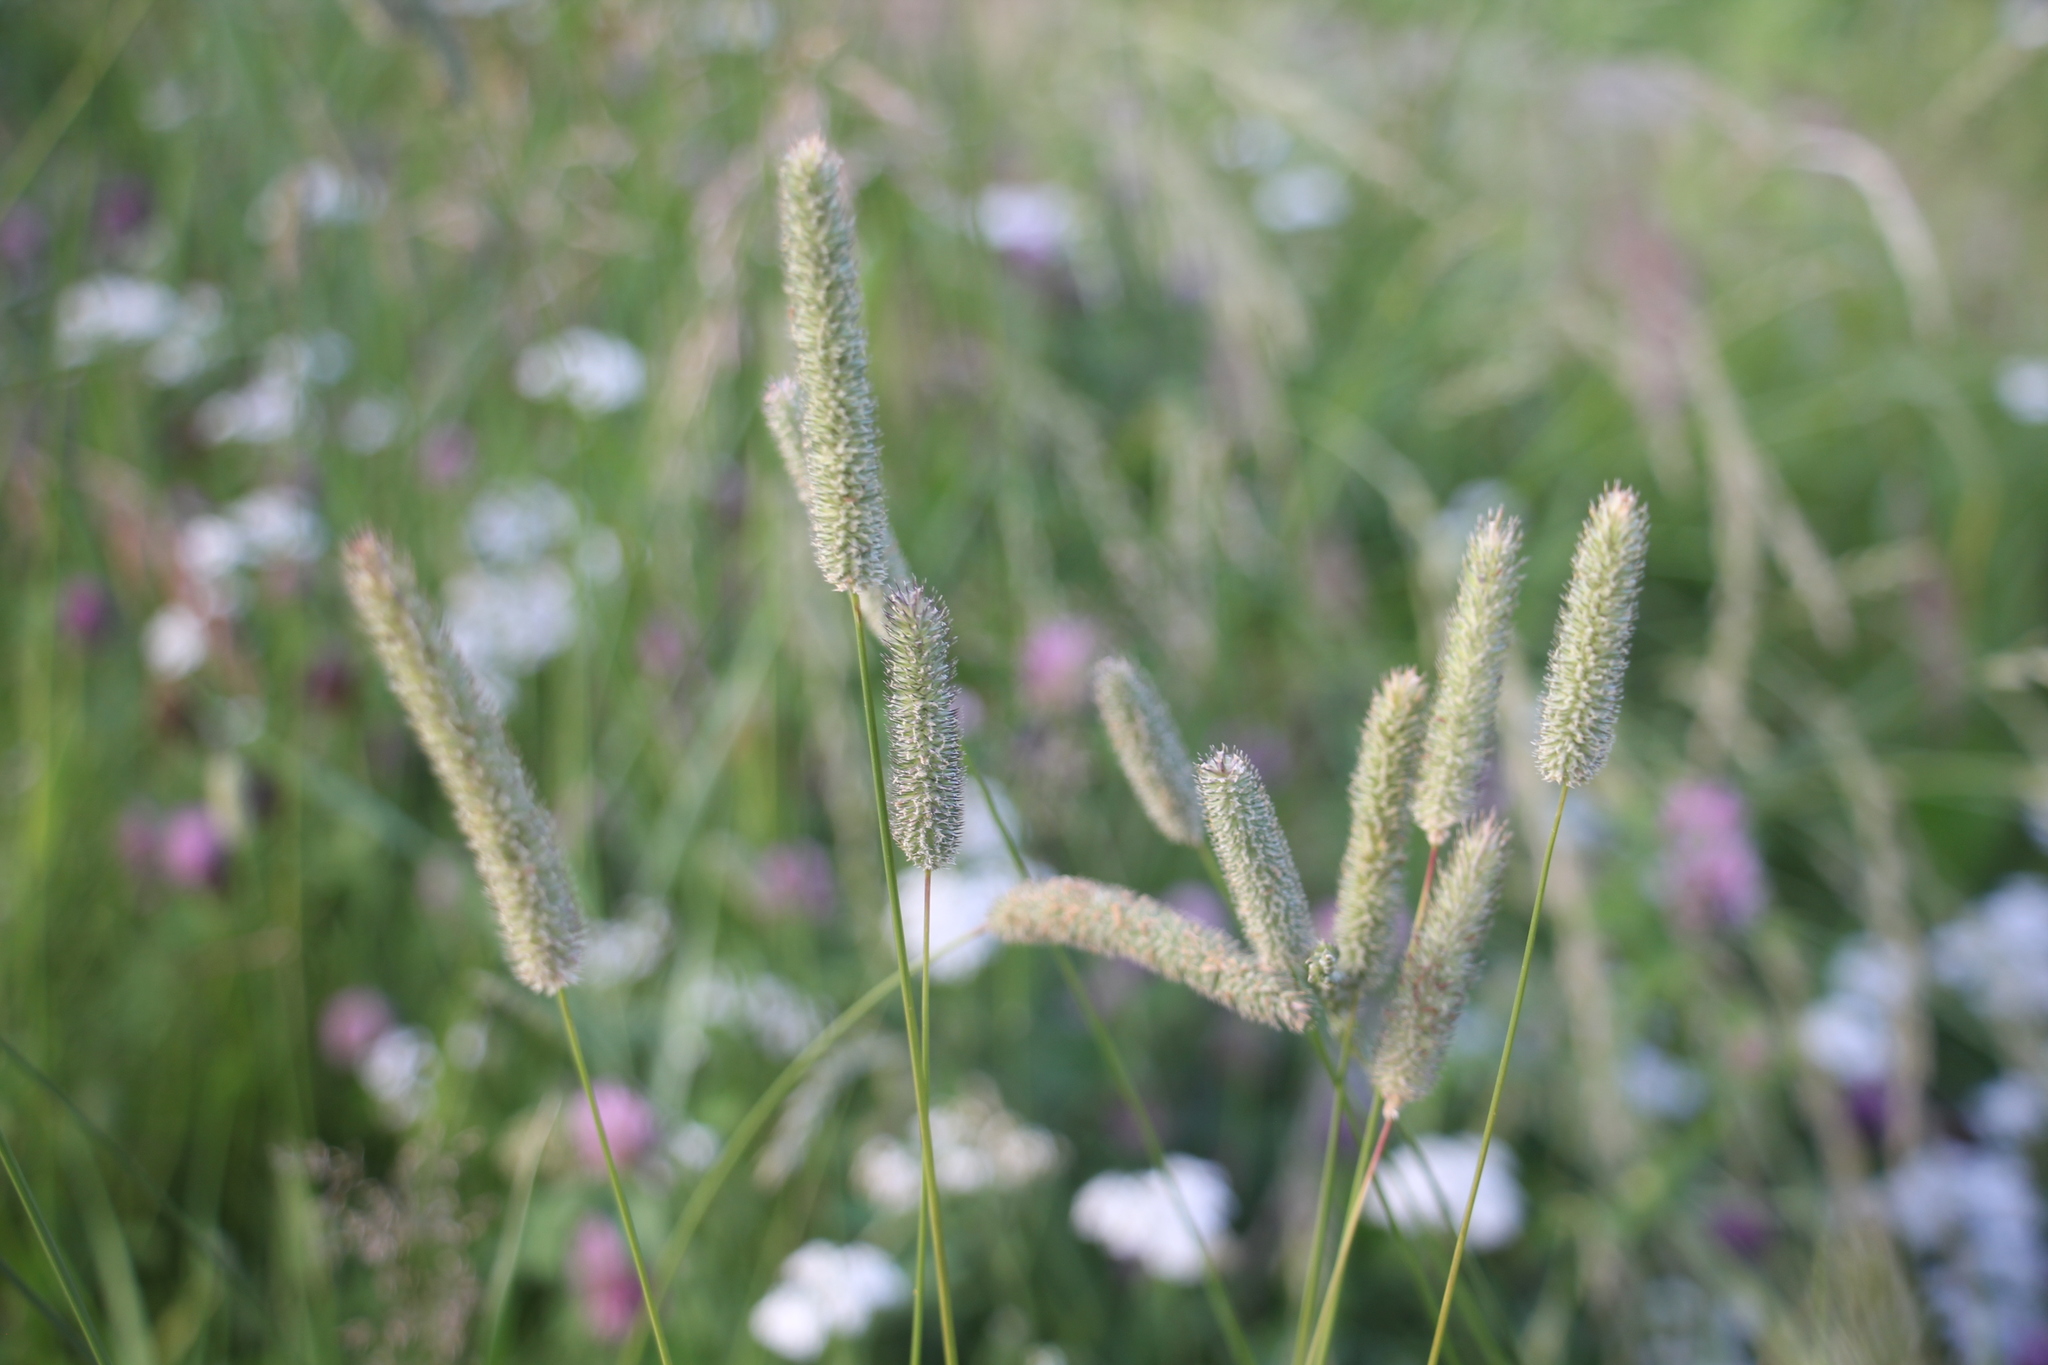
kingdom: Plantae
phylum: Tracheophyta
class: Liliopsida
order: Poales
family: Poaceae
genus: Phleum
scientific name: Phleum pratense
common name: Timothy grass
